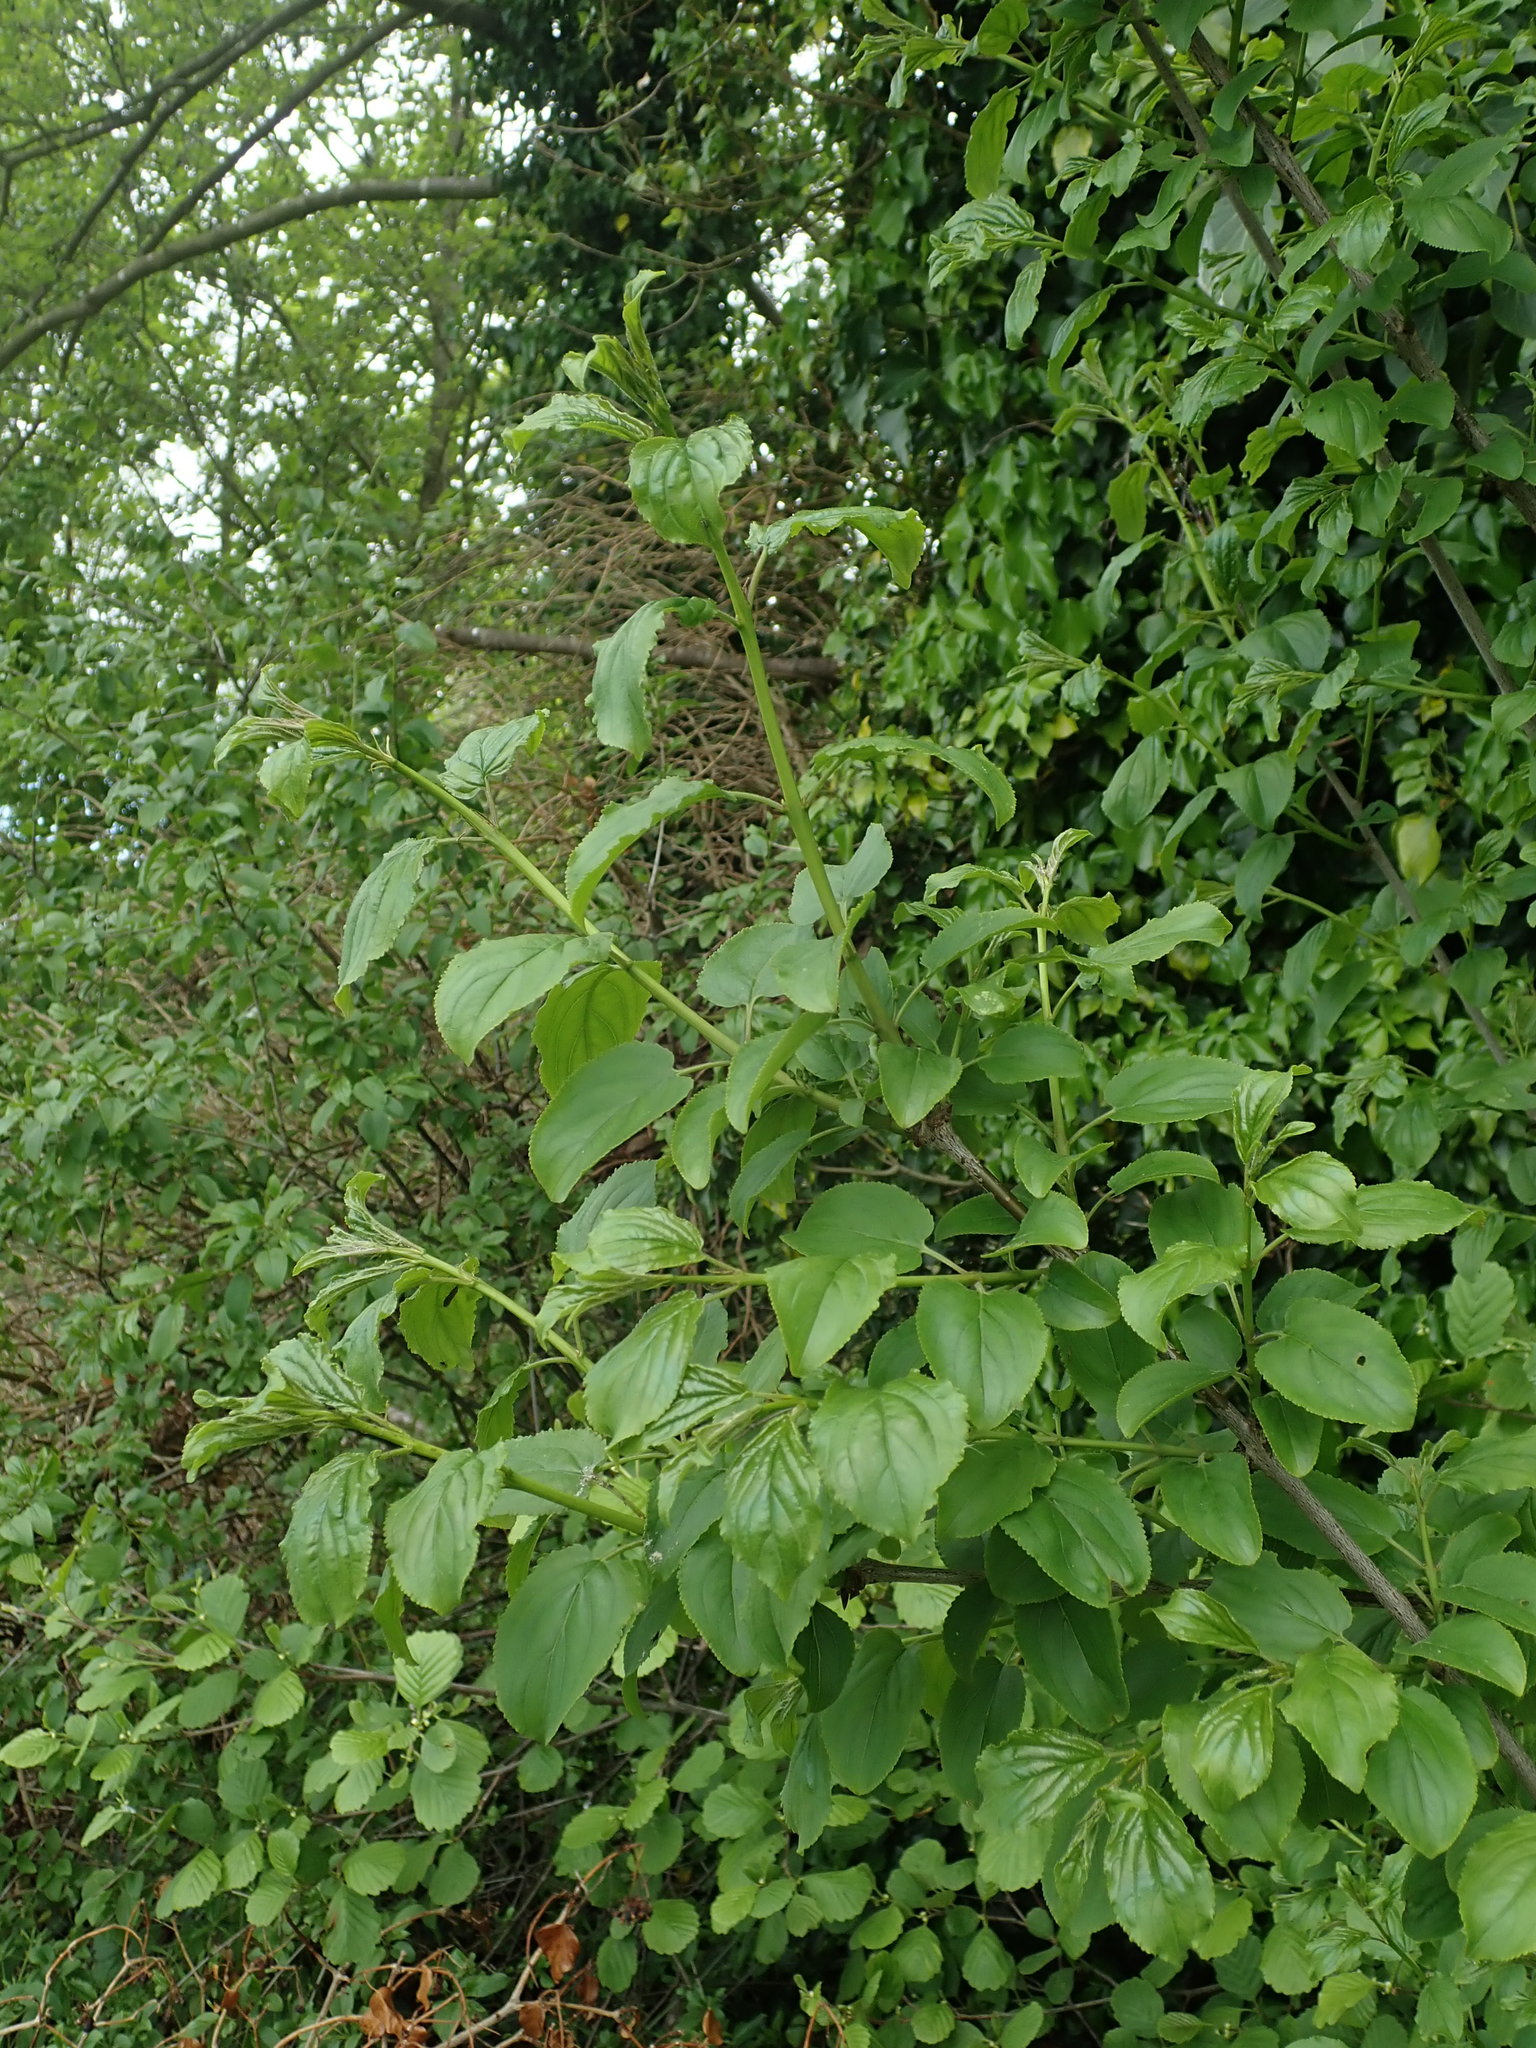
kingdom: Plantae
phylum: Tracheophyta
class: Magnoliopsida
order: Rosales
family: Rhamnaceae
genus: Rhamnus
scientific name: Rhamnus cathartica
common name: Common buckthorn
